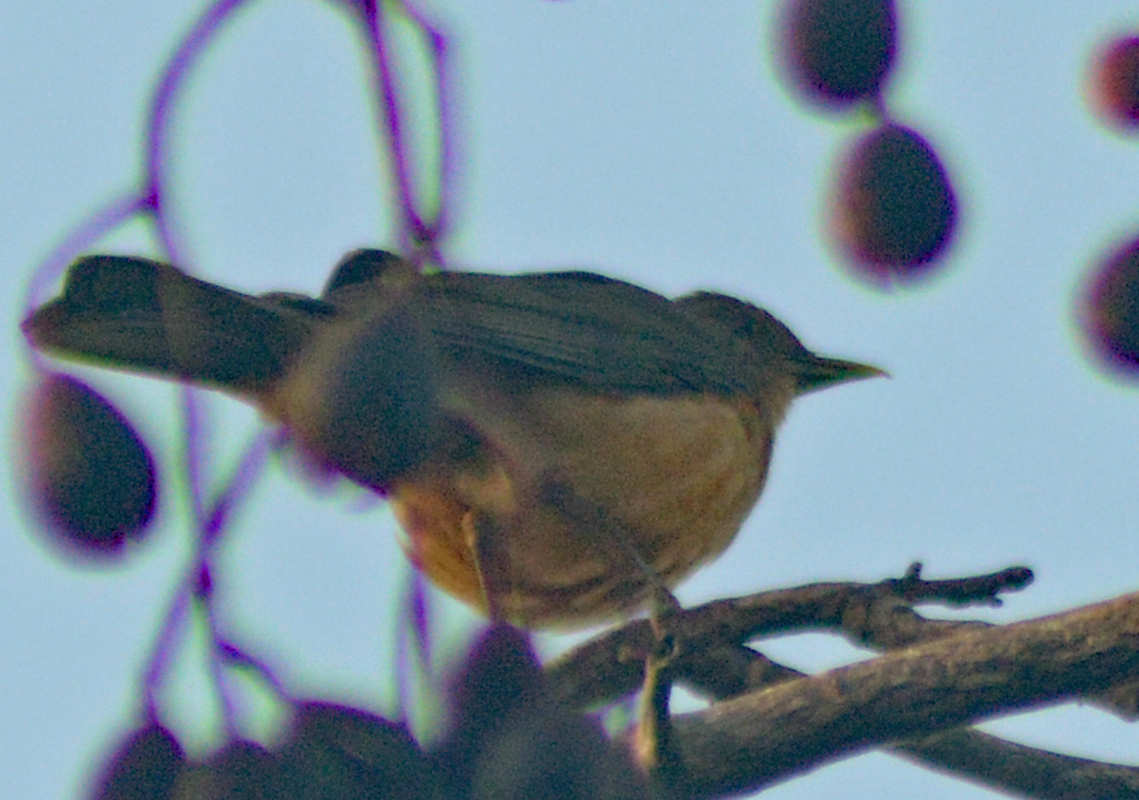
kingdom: Animalia
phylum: Chordata
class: Aves
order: Passeriformes
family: Turdidae
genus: Turdus
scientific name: Turdus grayi
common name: Clay-colored thrush
